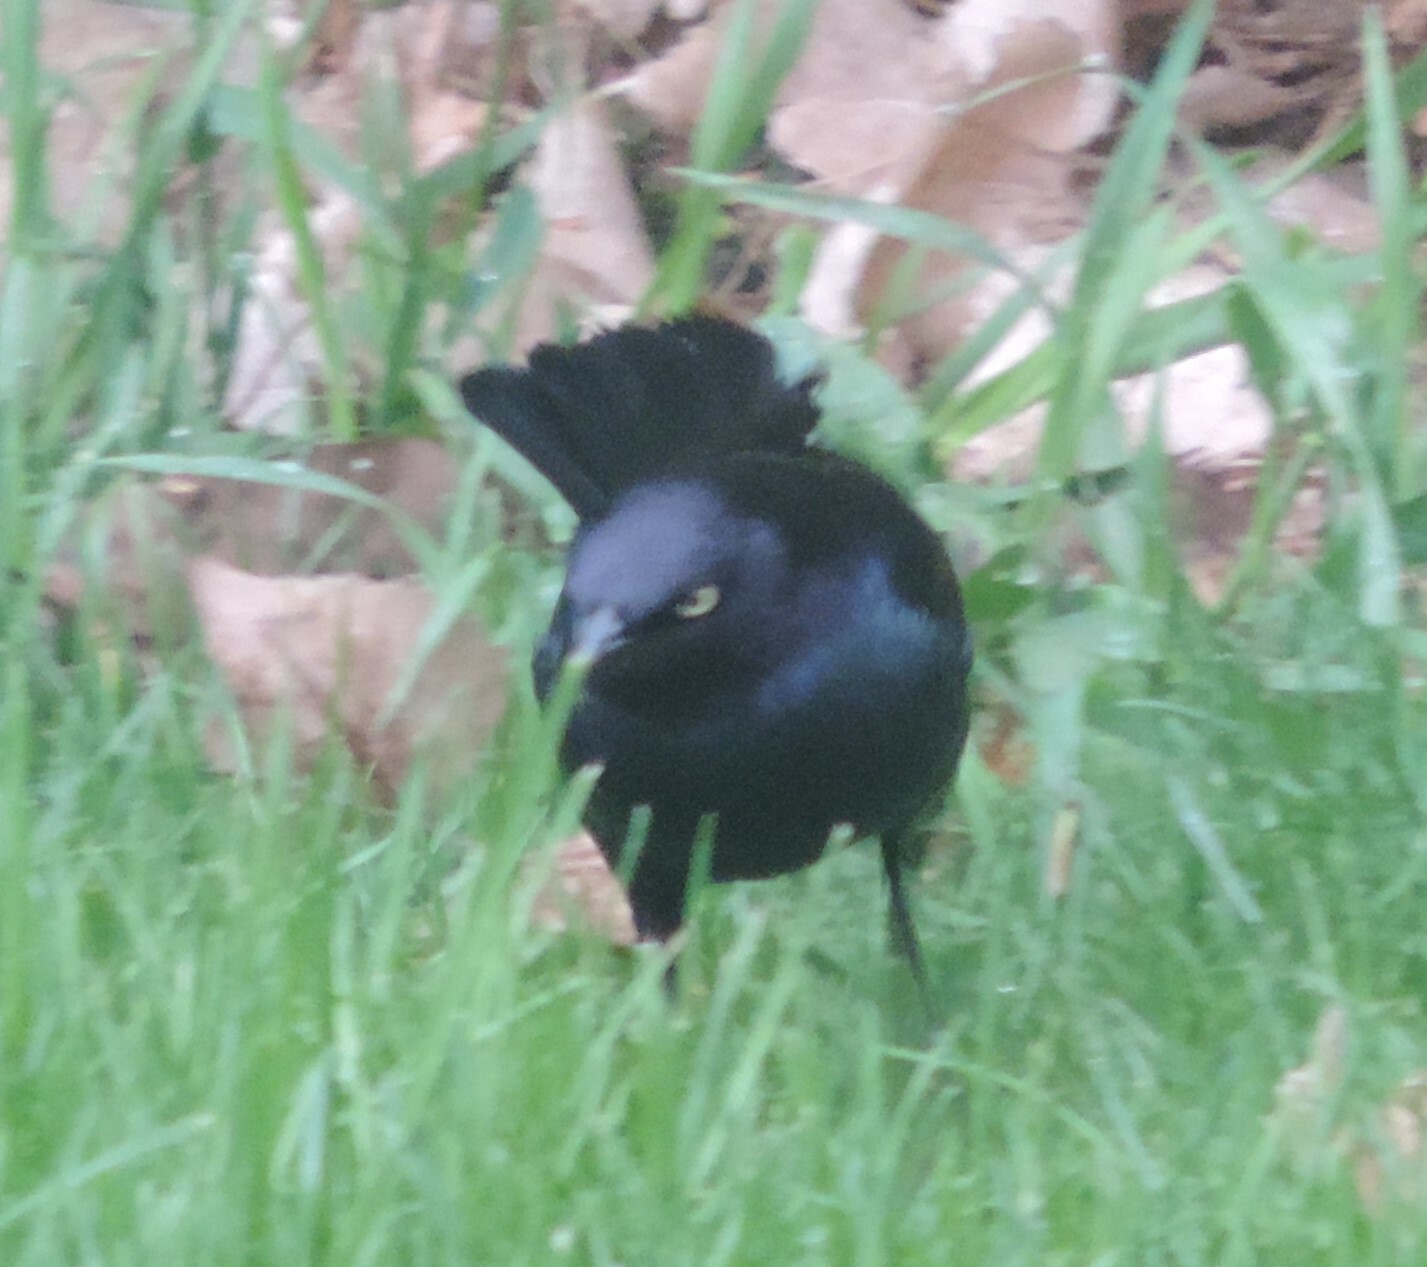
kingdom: Animalia
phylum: Chordata
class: Aves
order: Passeriformes
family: Icteridae
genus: Euphagus
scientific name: Euphagus cyanocephalus
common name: Brewer's blackbird
